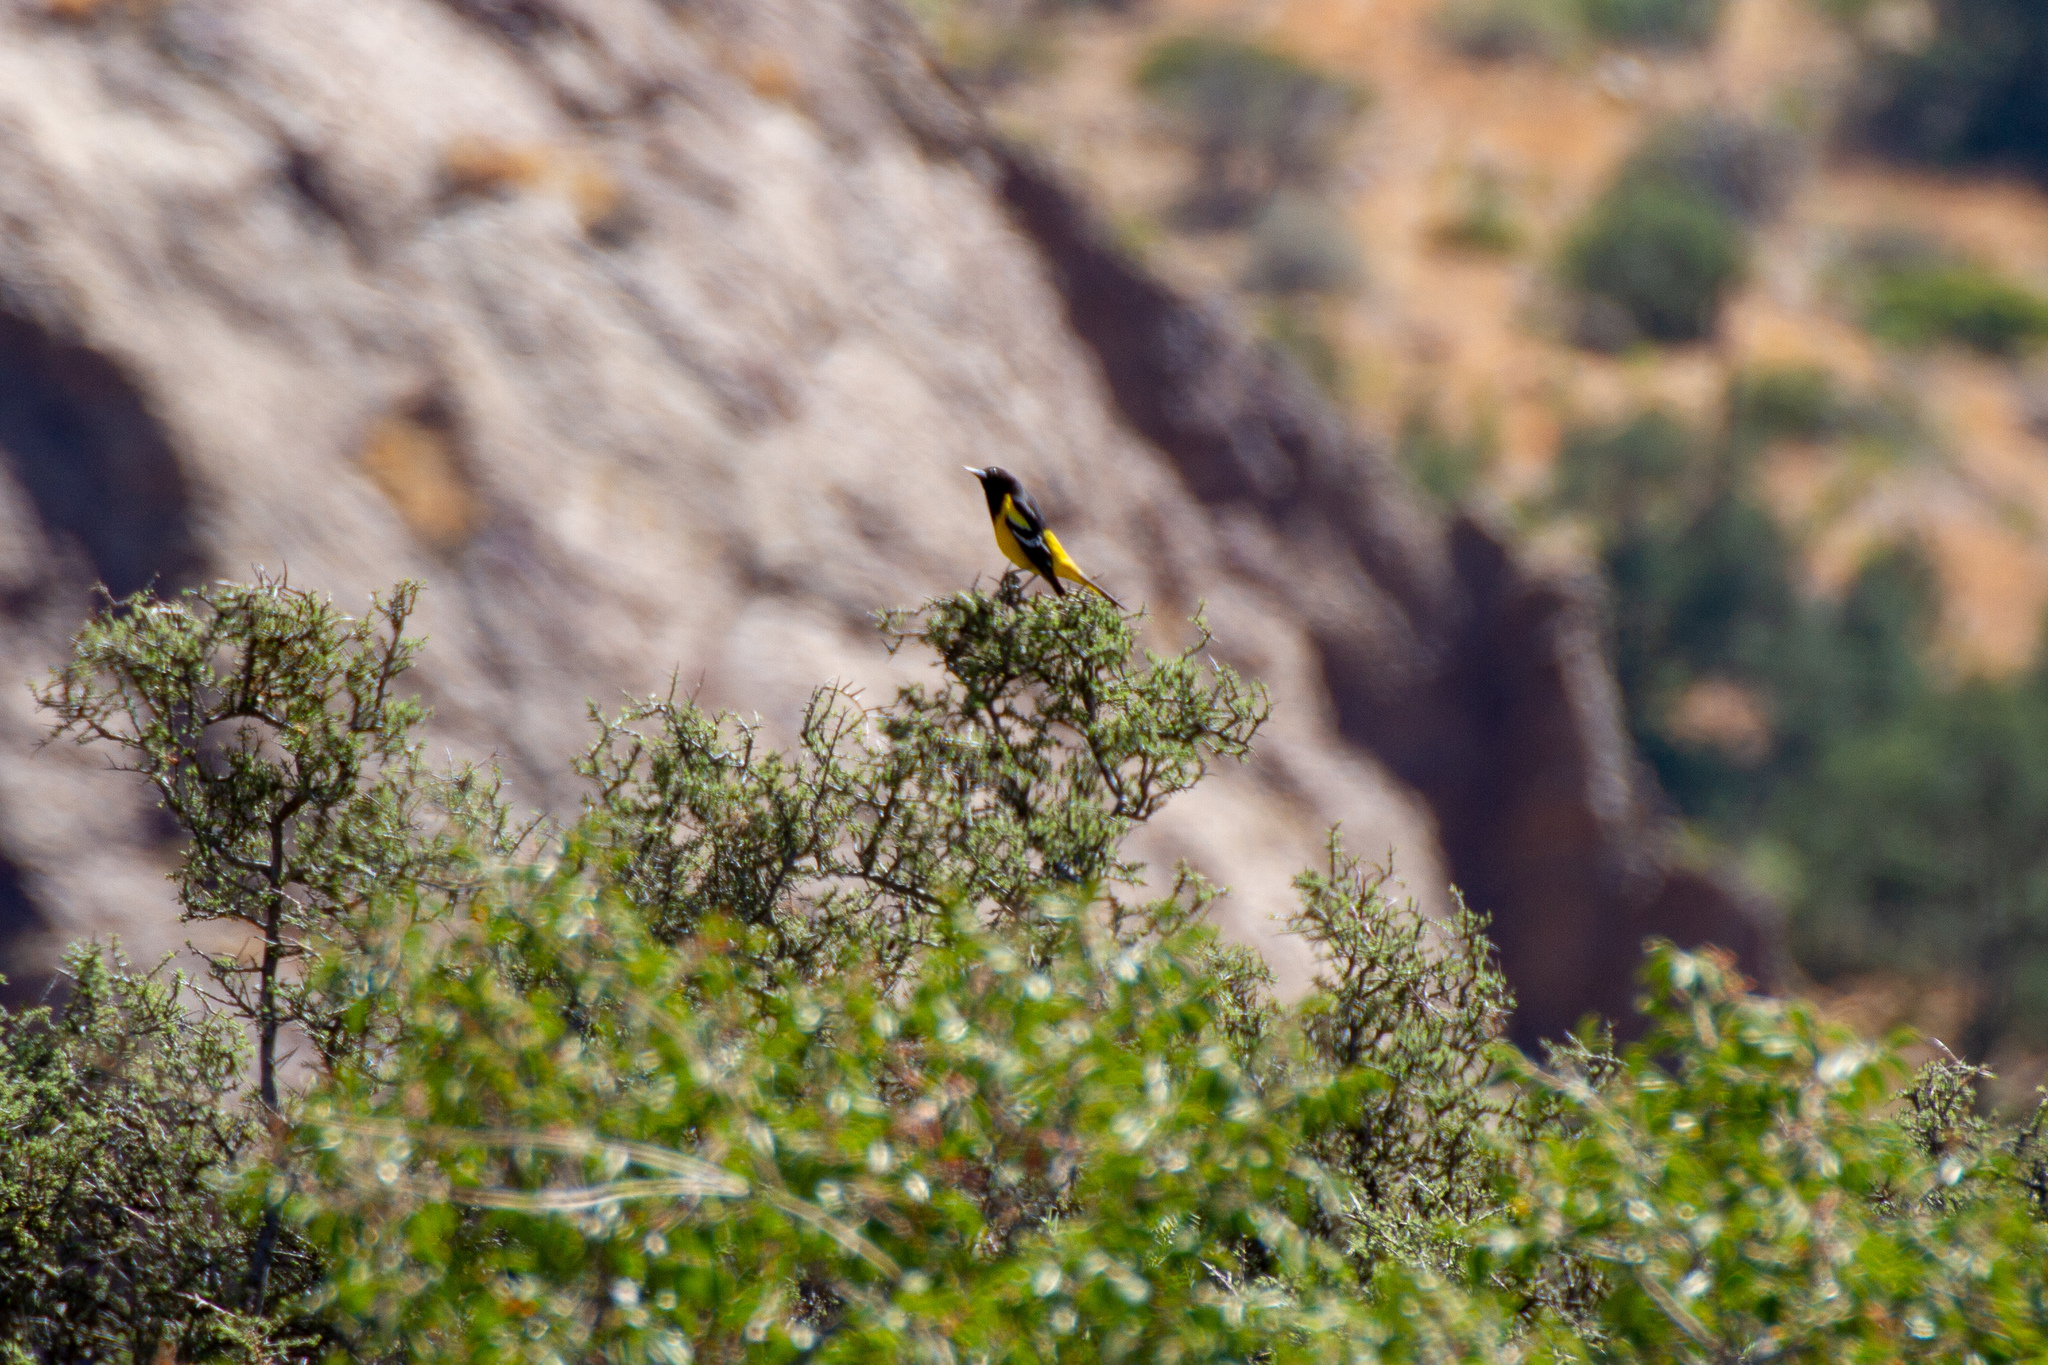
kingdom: Animalia
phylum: Chordata
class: Aves
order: Passeriformes
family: Icteridae
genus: Icterus
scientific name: Icterus parisorum
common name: Scott's oriole
